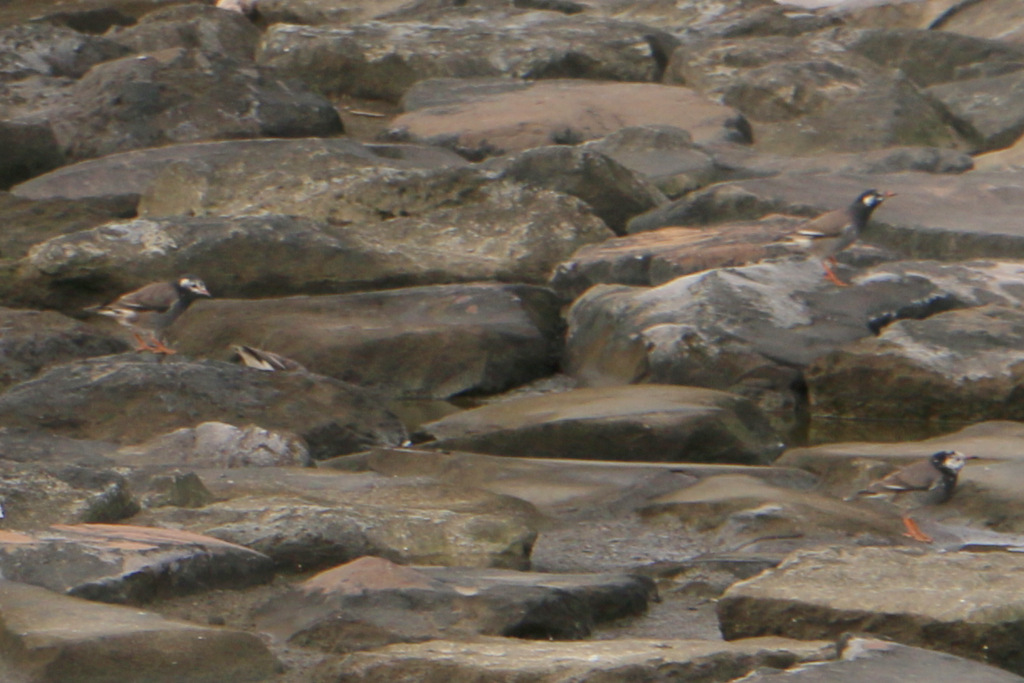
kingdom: Animalia
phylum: Chordata
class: Aves
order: Passeriformes
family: Sturnidae
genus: Spodiopsar
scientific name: Spodiopsar cineraceus
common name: White-cheeked starling
